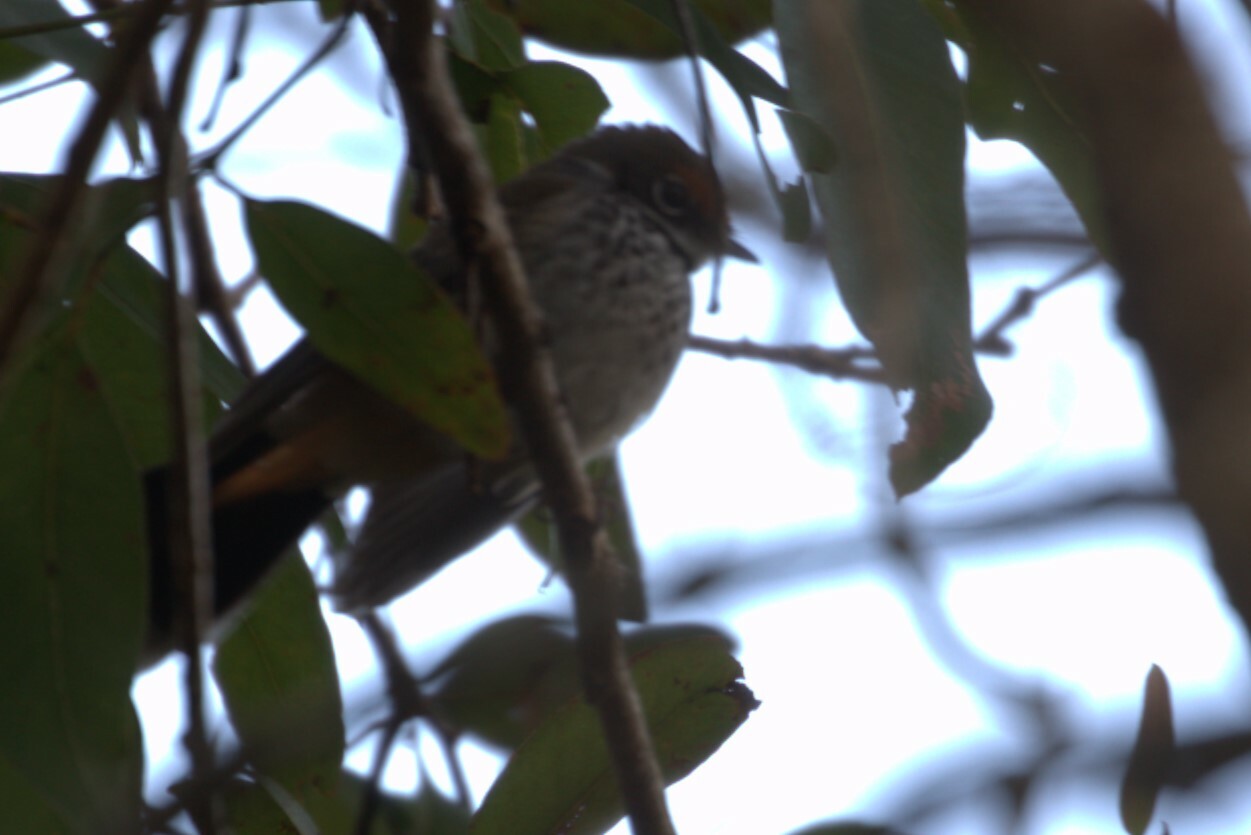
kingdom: Animalia
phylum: Chordata
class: Aves
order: Passeriformes
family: Rhipiduridae
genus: Rhipidura
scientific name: Rhipidura rufifrons
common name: Rufous fantail
